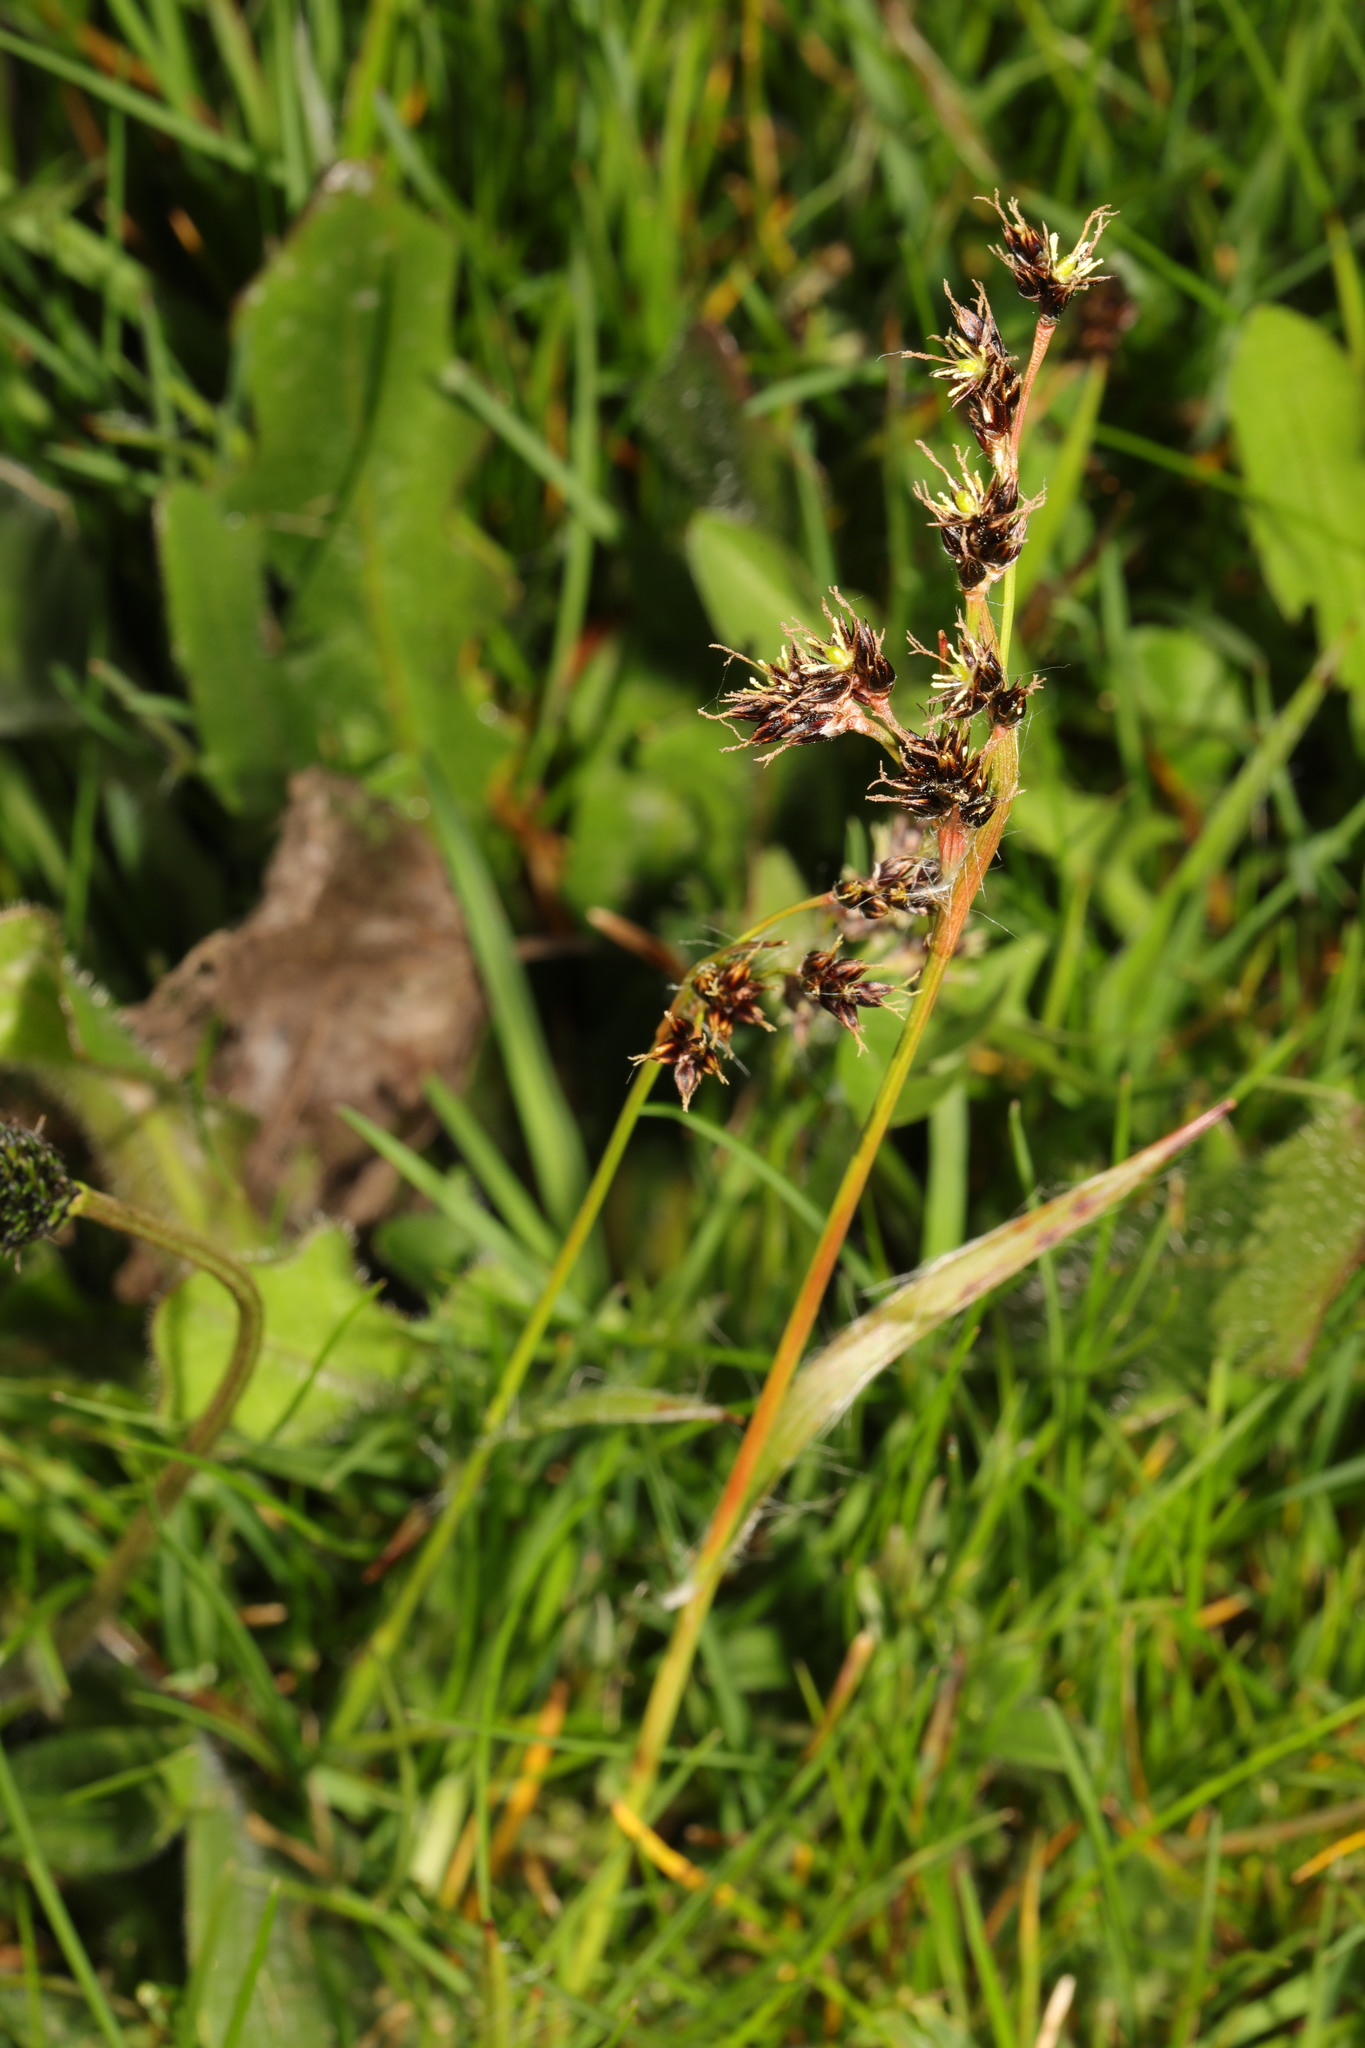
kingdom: Plantae
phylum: Tracheophyta
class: Liliopsida
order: Poales
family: Juncaceae
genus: Luzula
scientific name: Luzula campestris
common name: Field wood-rush
